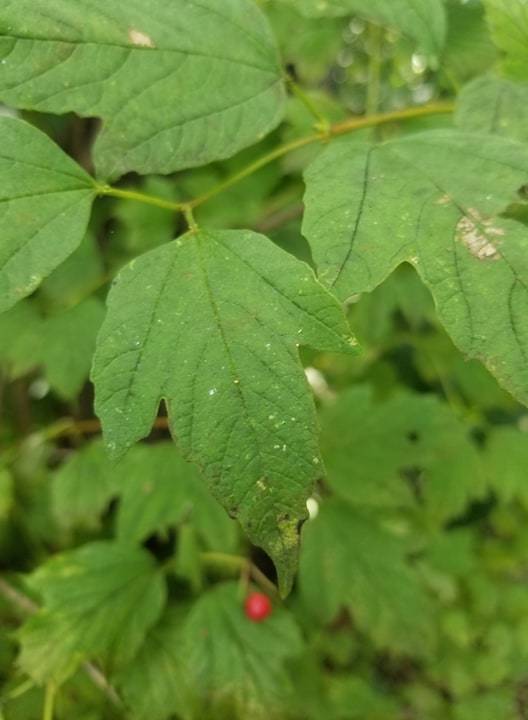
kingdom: Plantae
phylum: Tracheophyta
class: Magnoliopsida
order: Dipsacales
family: Viburnaceae
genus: Viburnum
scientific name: Viburnum opulus
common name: Guelder-rose
